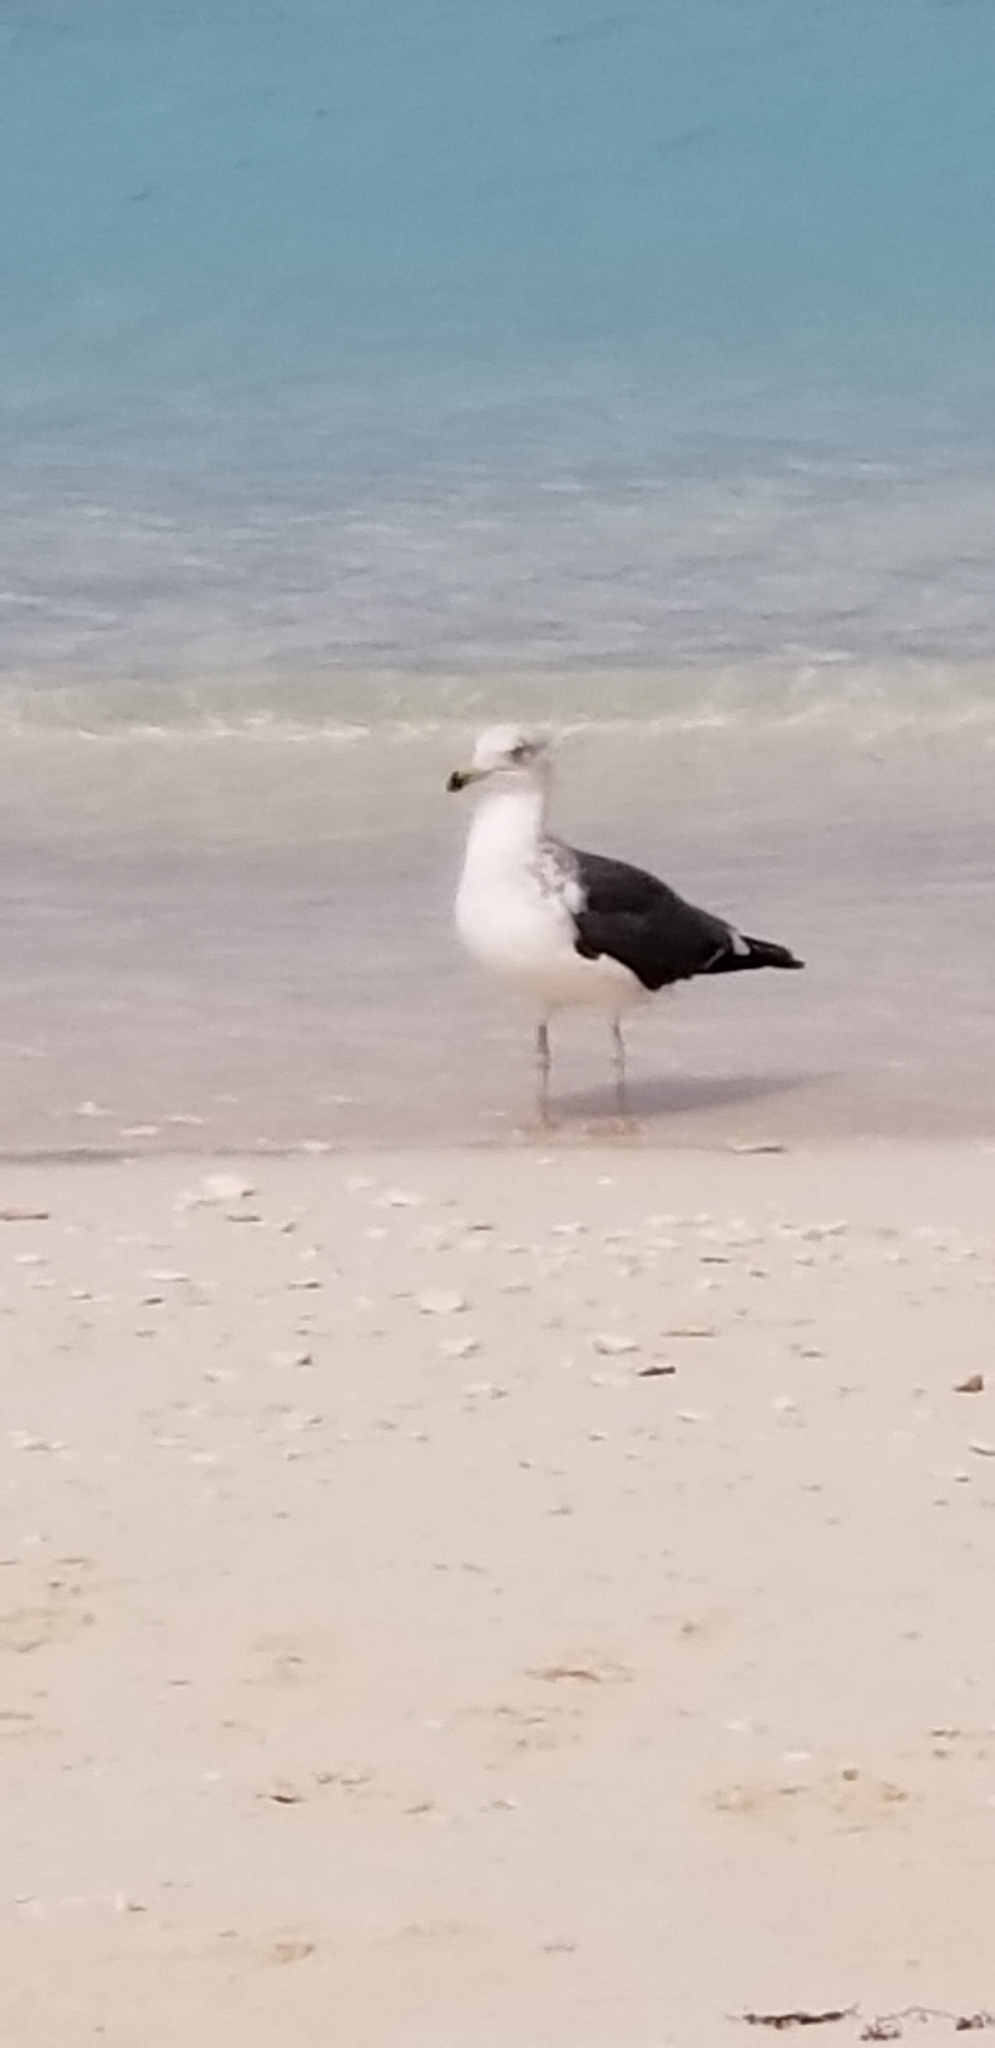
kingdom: Animalia
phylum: Chordata
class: Aves
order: Charadriiformes
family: Laridae
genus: Larus
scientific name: Larus fuscus
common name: Lesser black-backed gull
